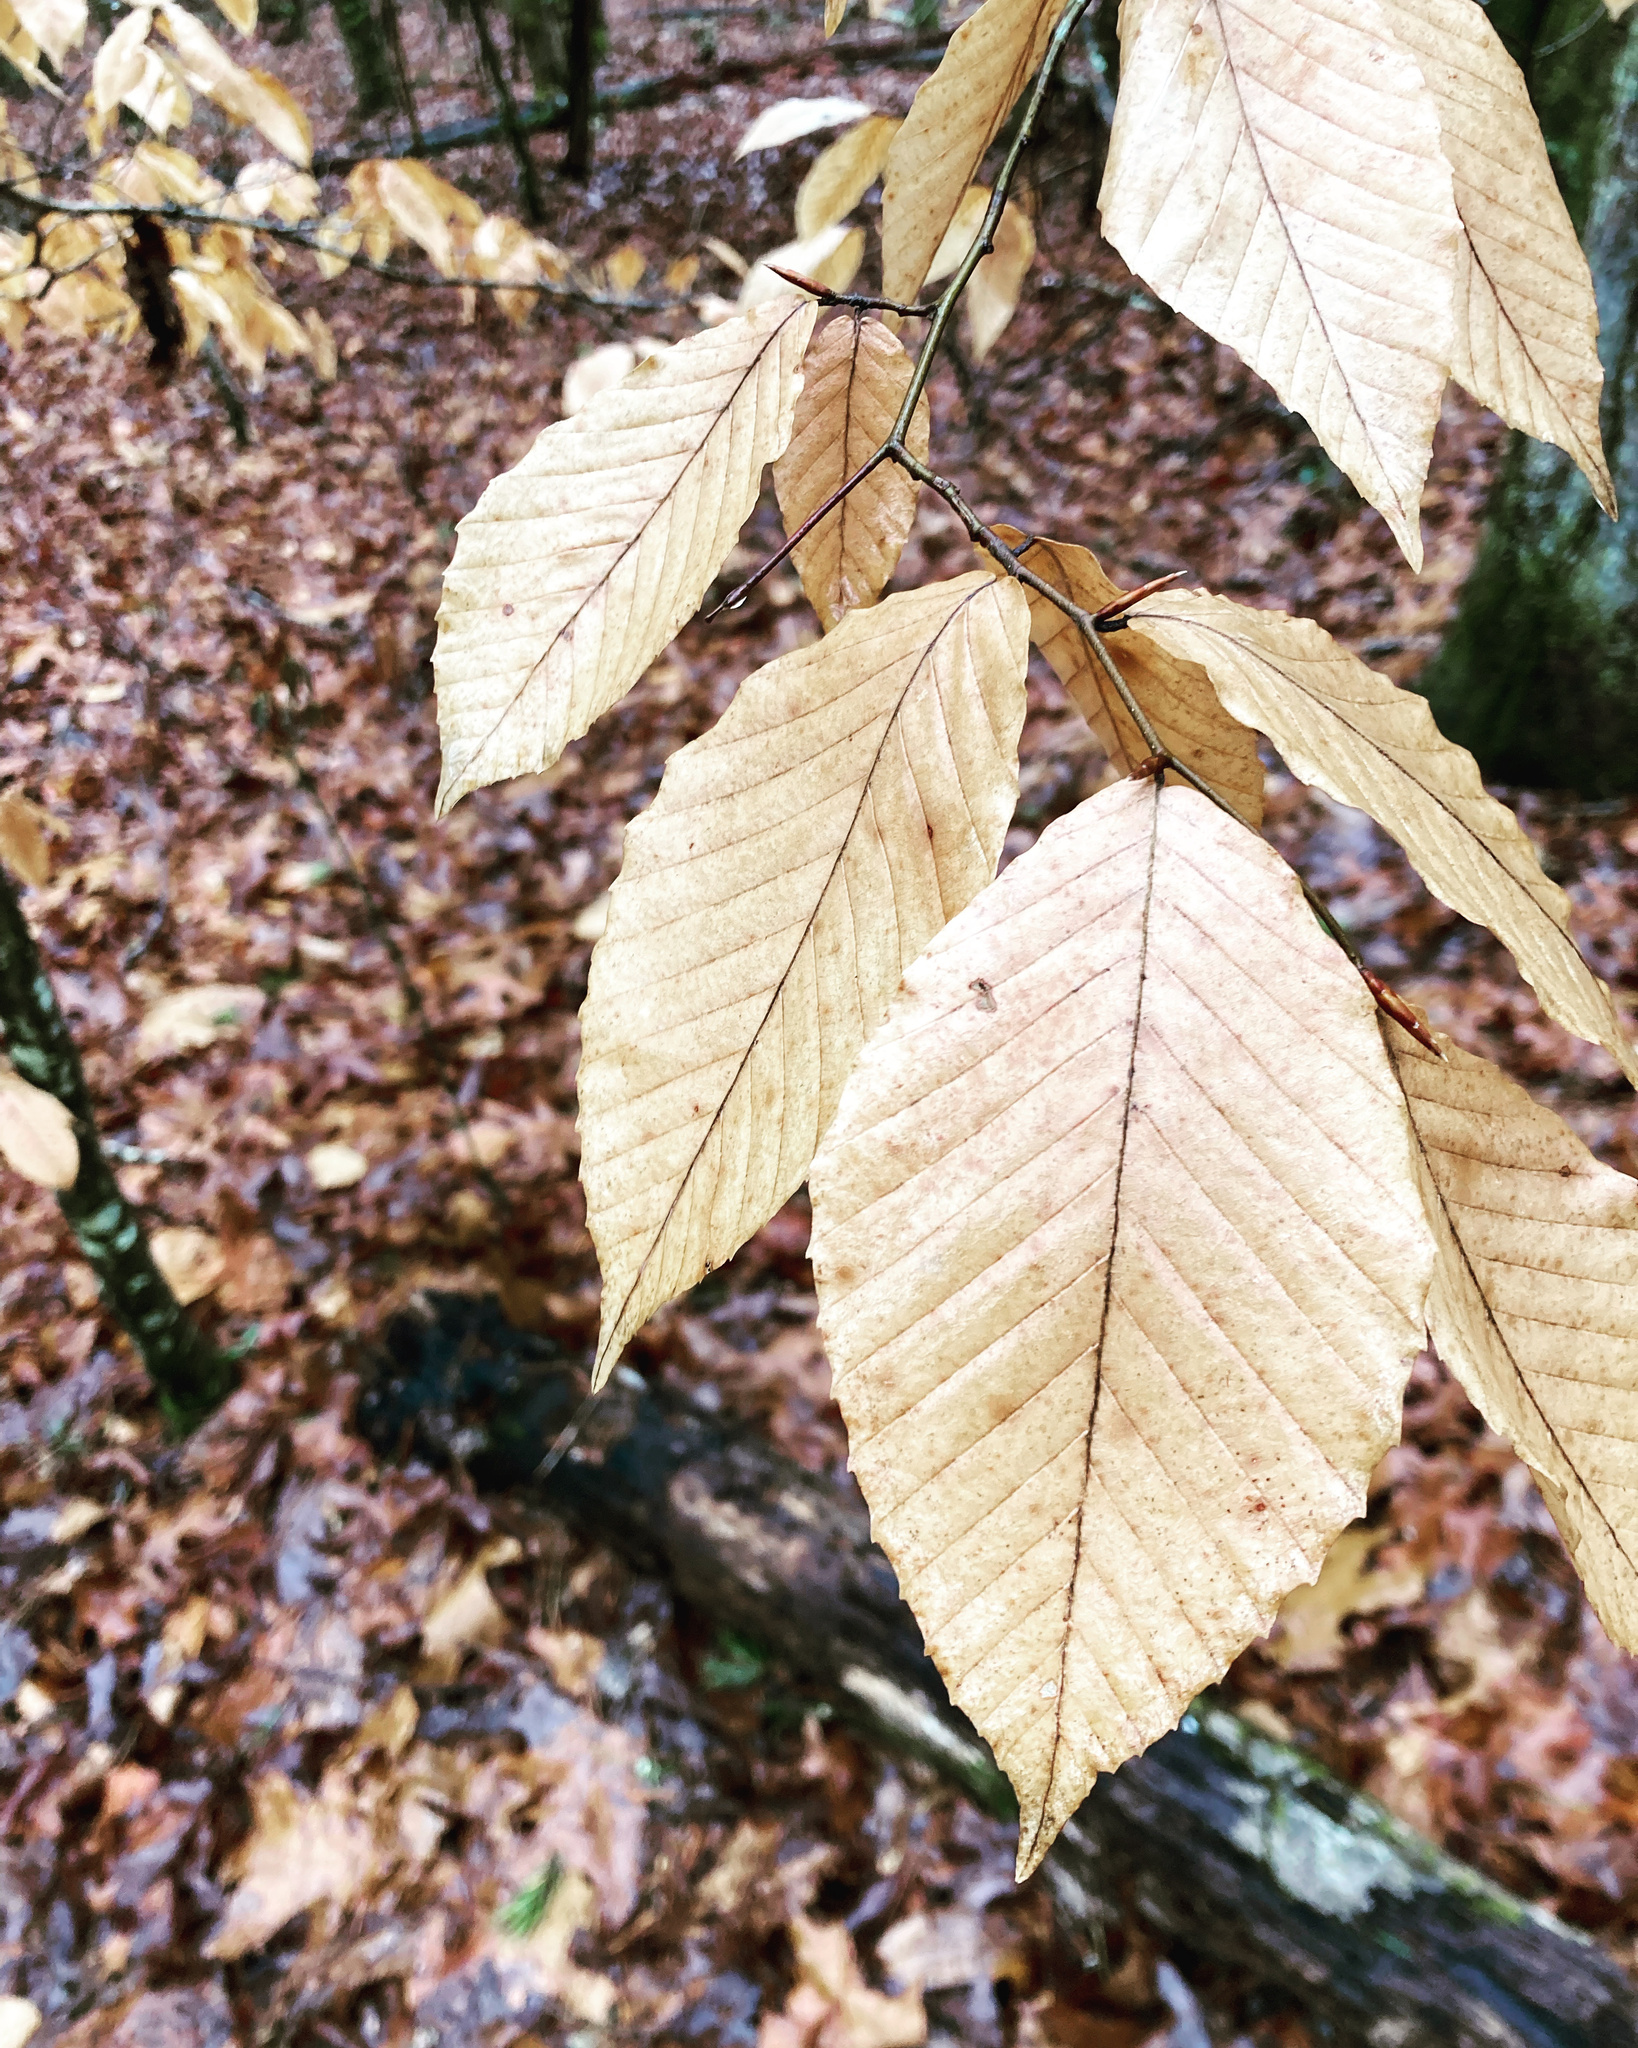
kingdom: Plantae
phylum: Tracheophyta
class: Magnoliopsida
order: Fagales
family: Fagaceae
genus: Fagus
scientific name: Fagus grandifolia
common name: American beech
